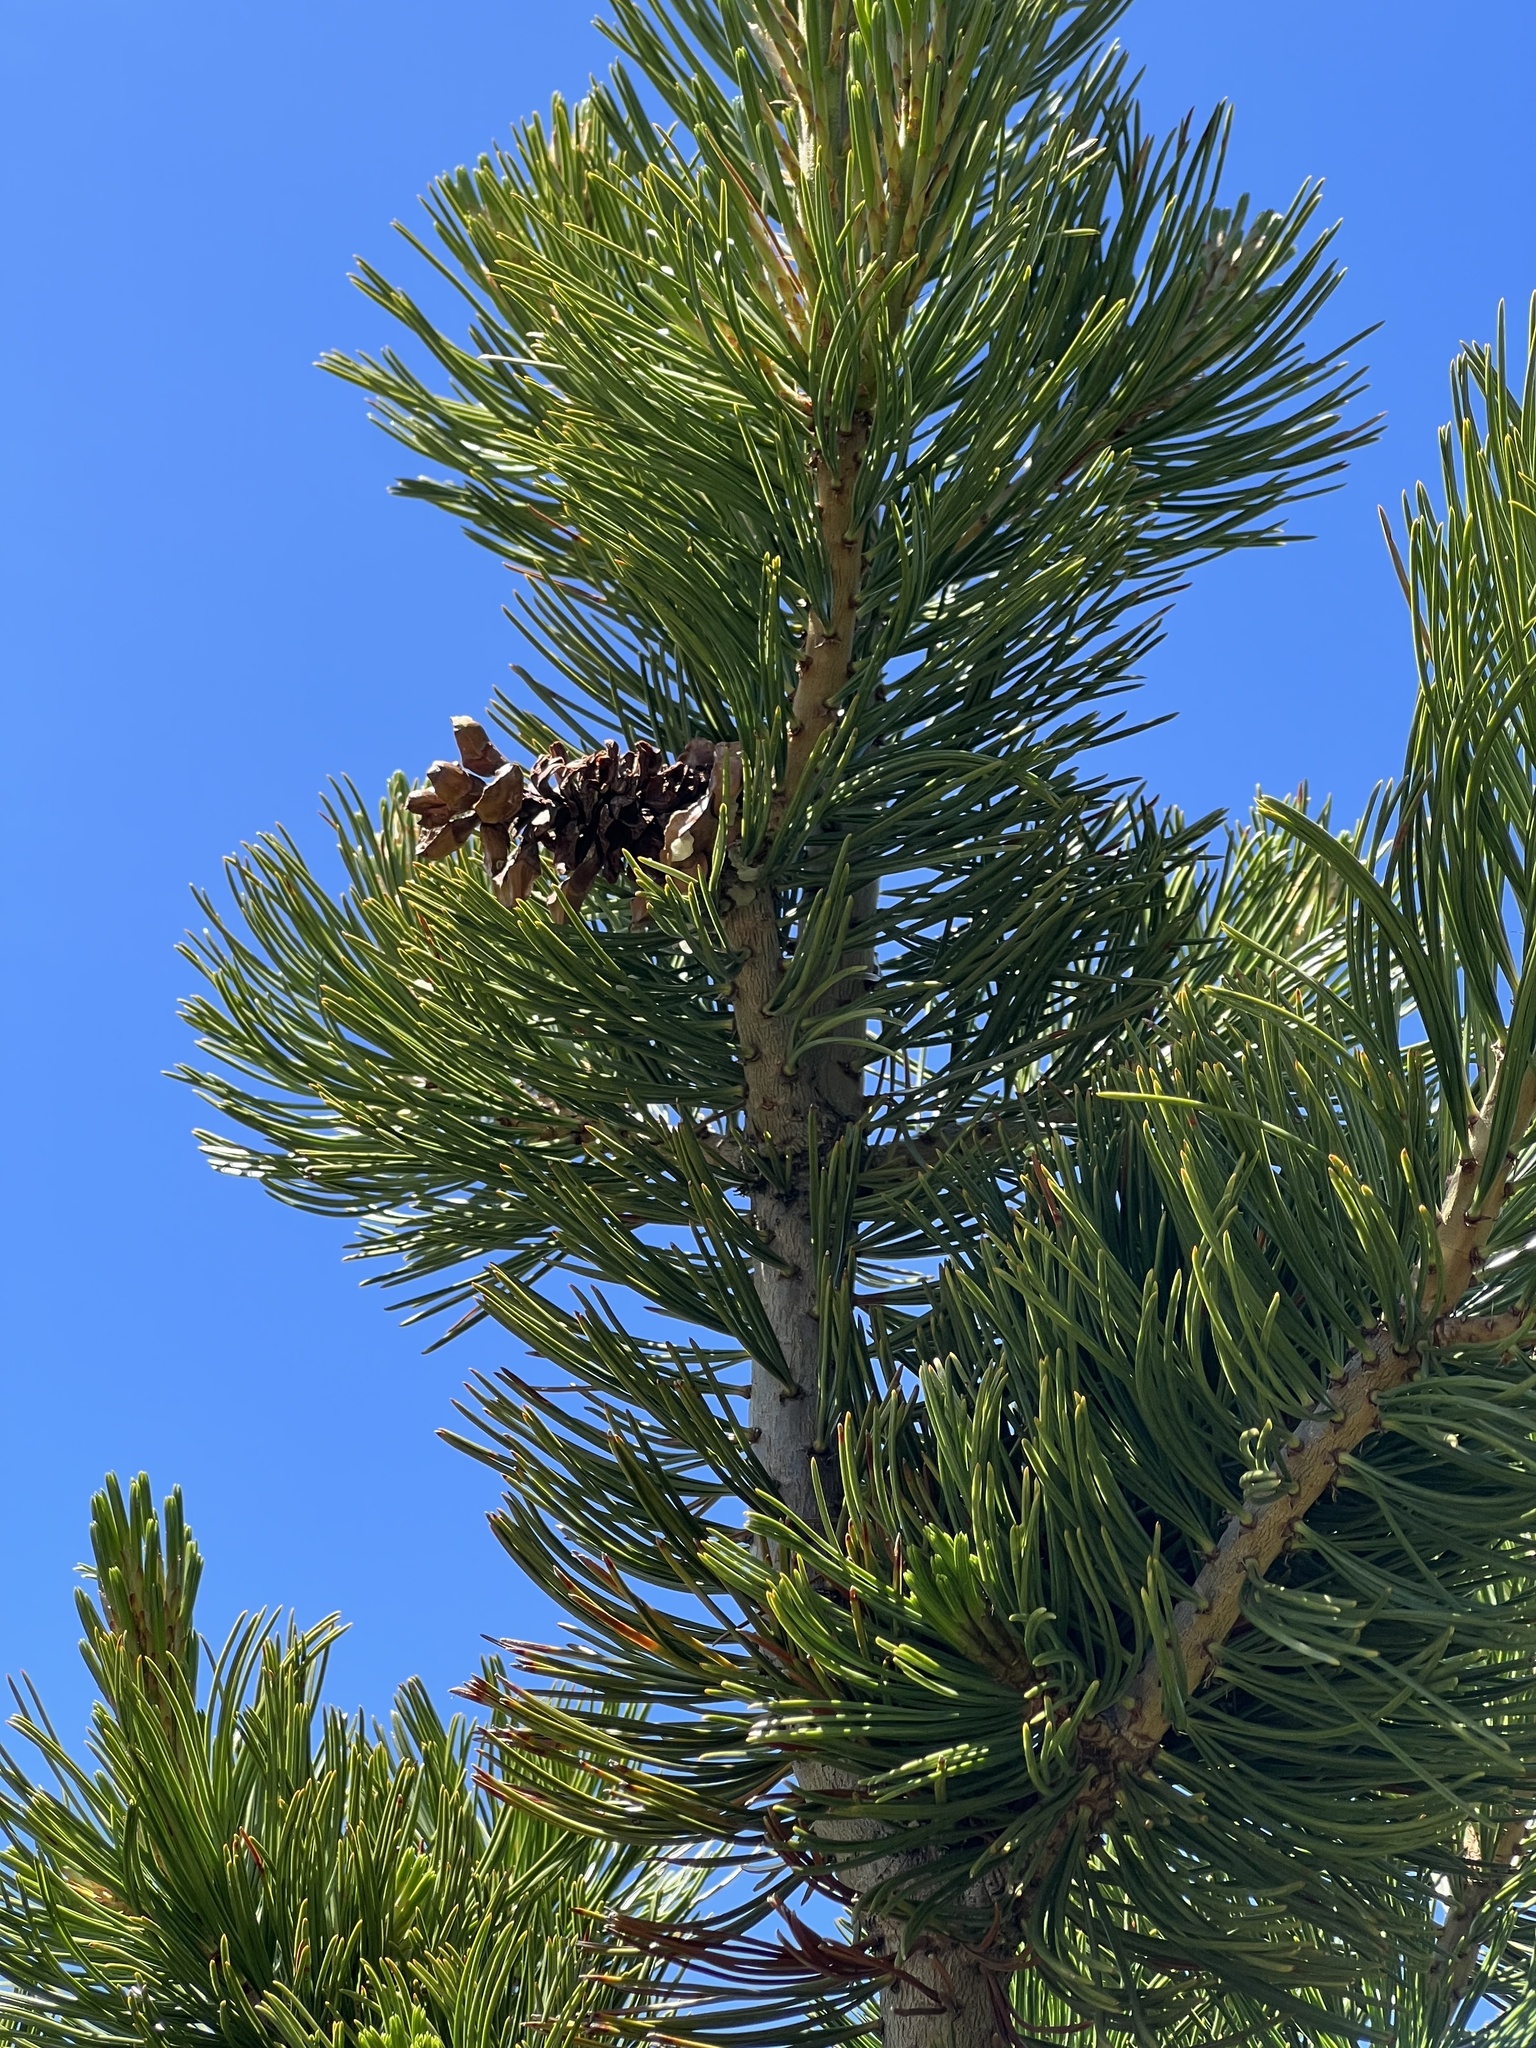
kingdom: Plantae
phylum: Tracheophyta
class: Pinopsida
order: Pinales
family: Pinaceae
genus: Pinus
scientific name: Pinus albicaulis
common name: Whitebark pine
